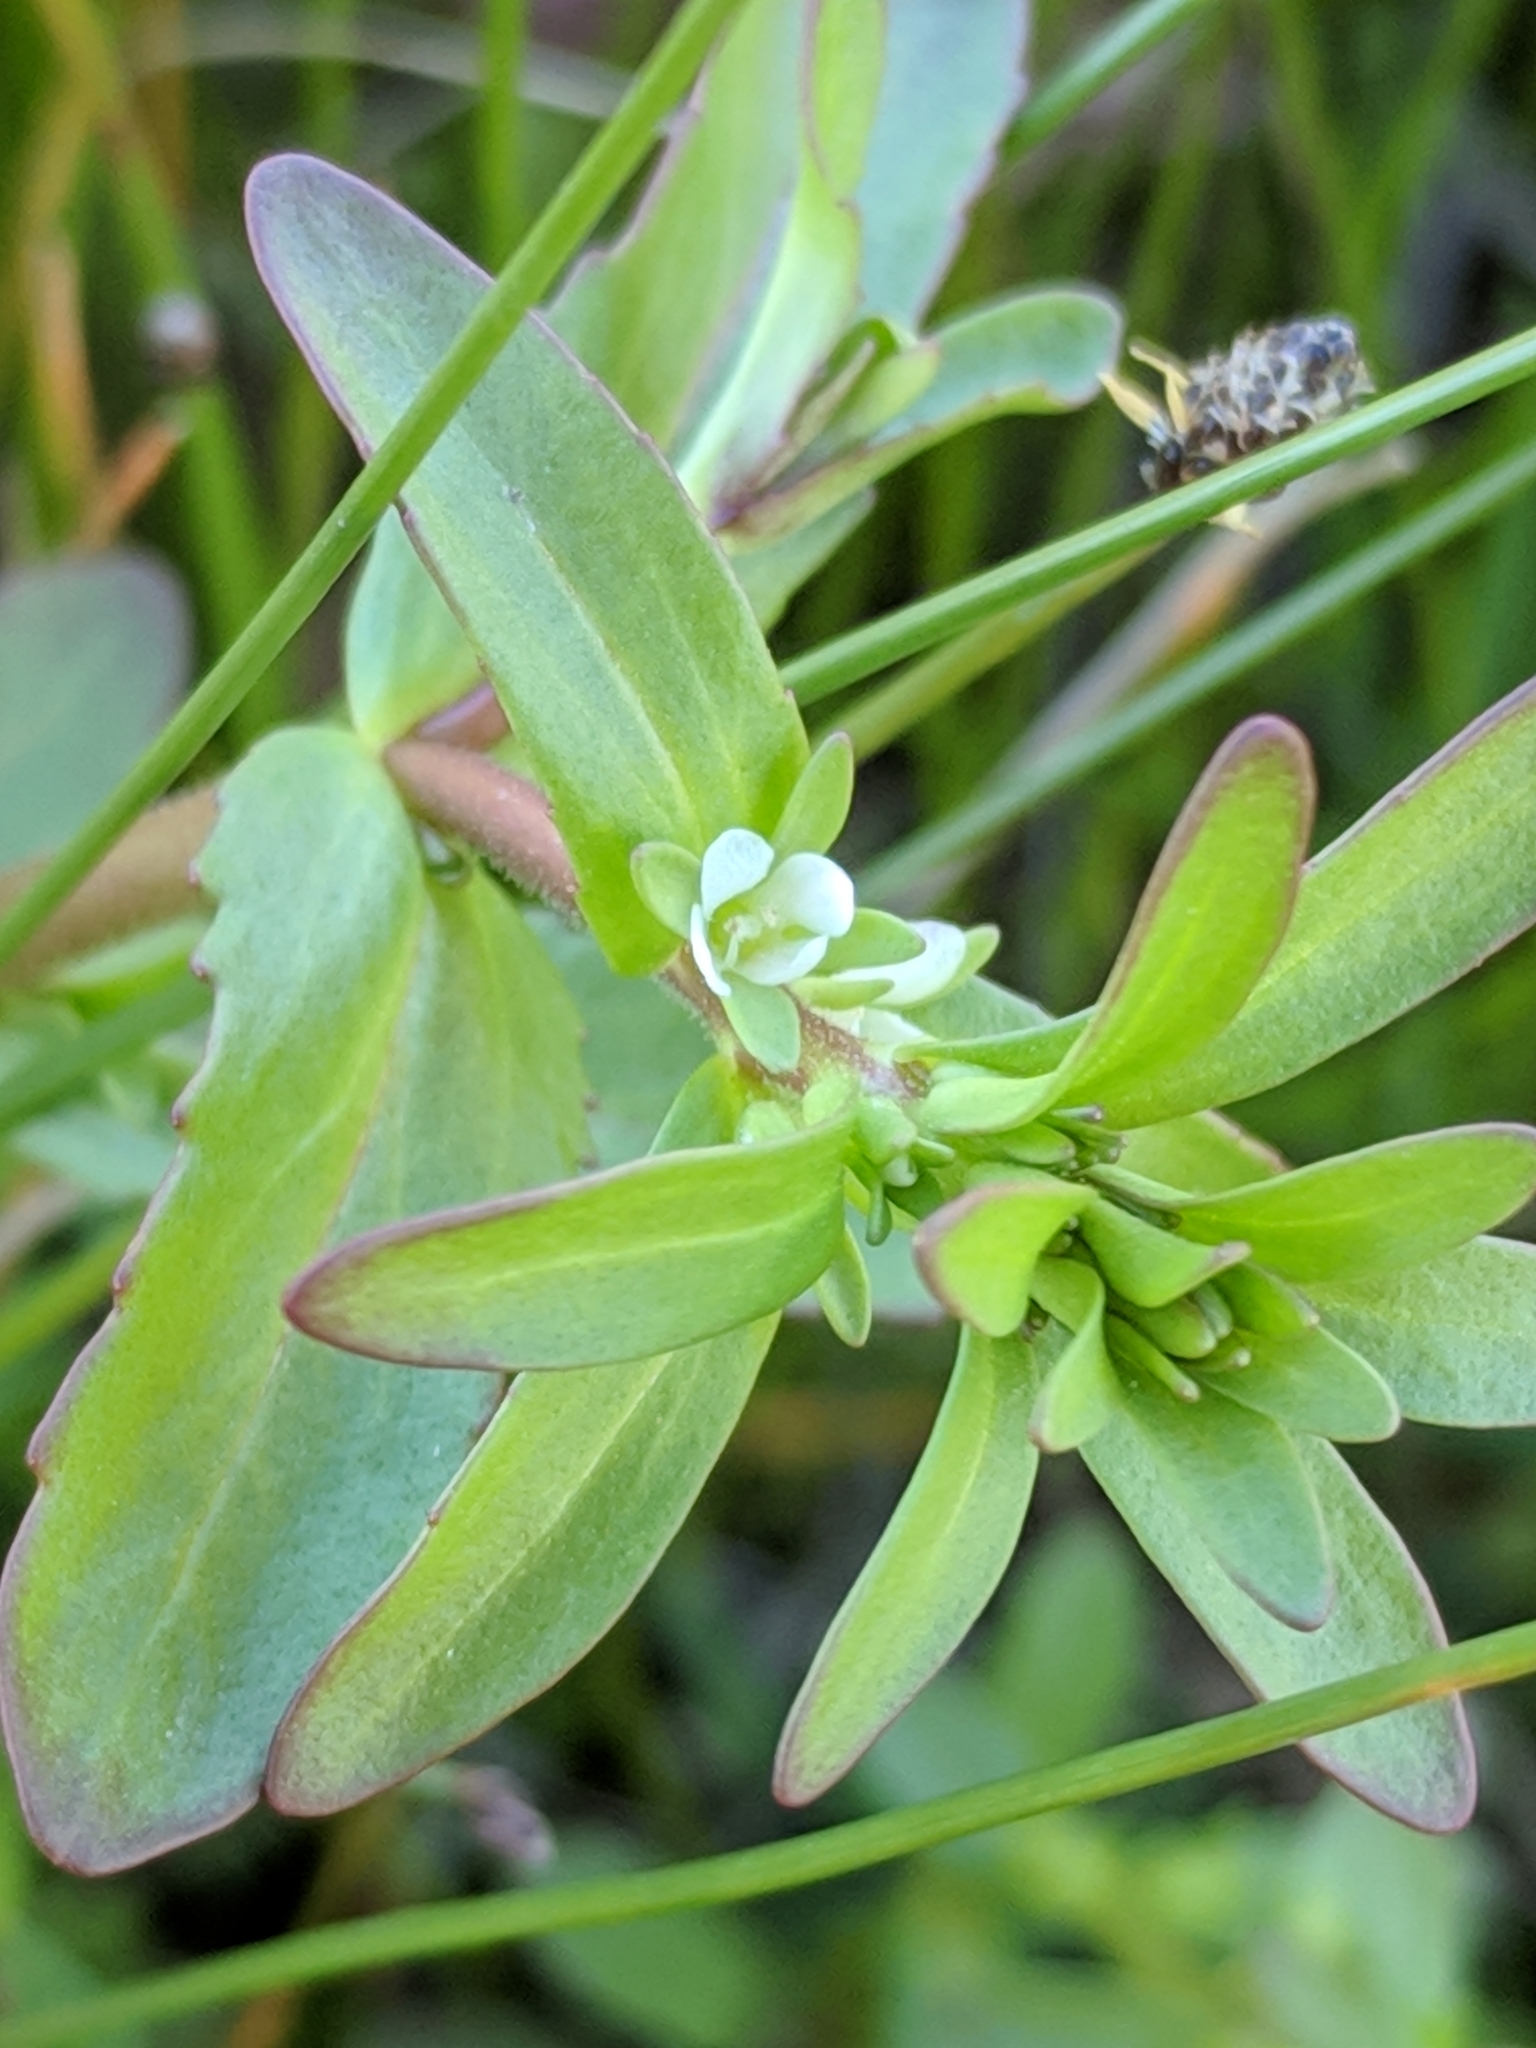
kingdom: Plantae
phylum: Tracheophyta
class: Magnoliopsida
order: Lamiales
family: Plantaginaceae
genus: Veronica
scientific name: Veronica peregrina
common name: Neckweed
